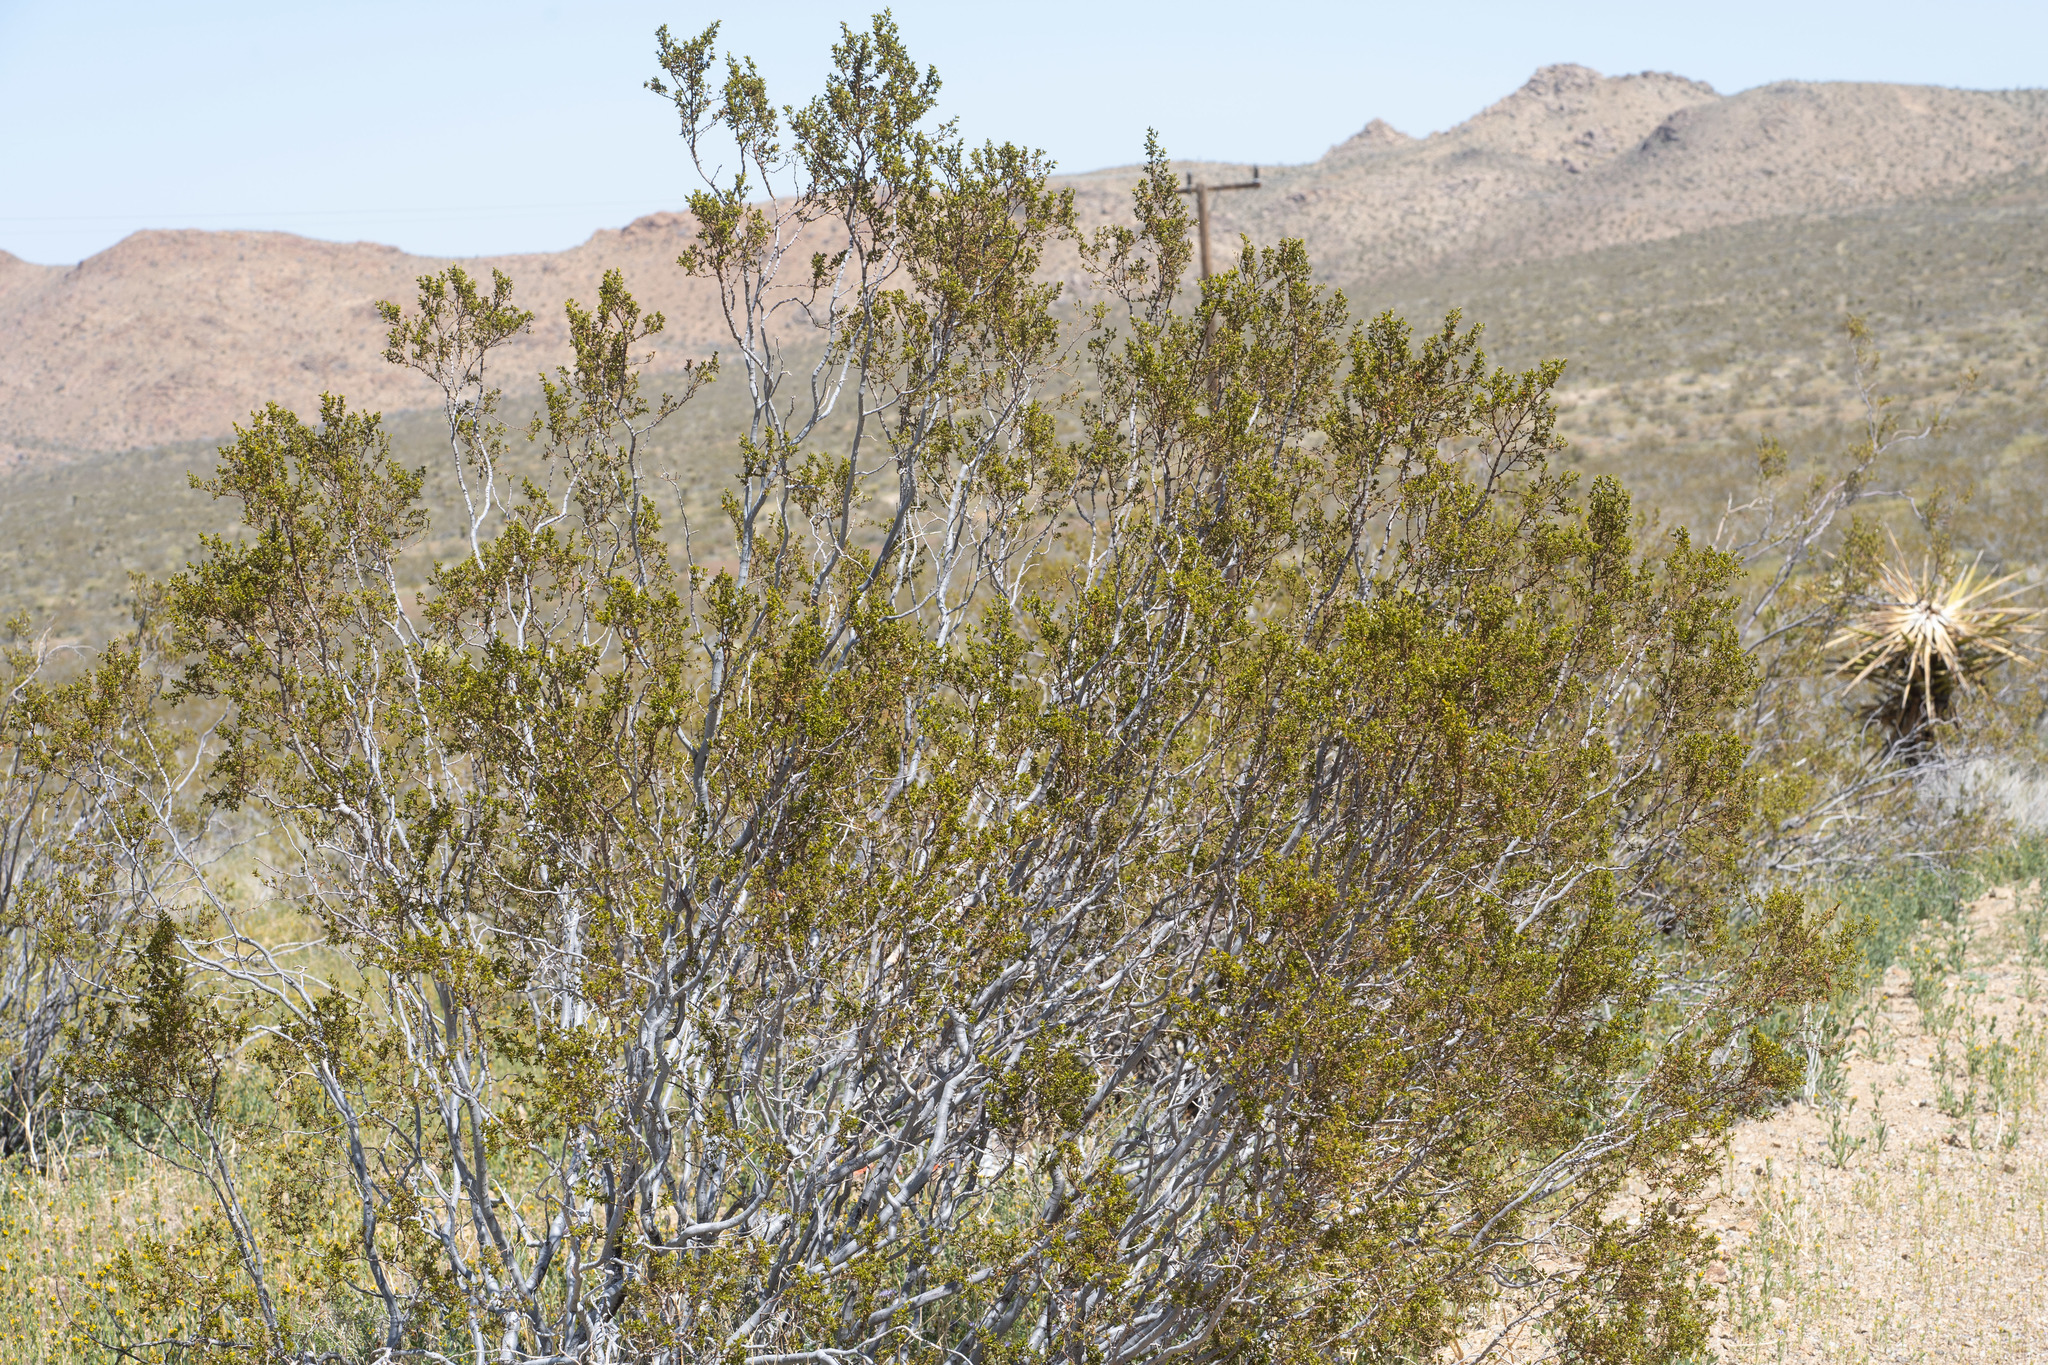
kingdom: Plantae
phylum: Tracheophyta
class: Magnoliopsida
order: Zygophyllales
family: Zygophyllaceae
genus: Larrea
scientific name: Larrea tridentata
